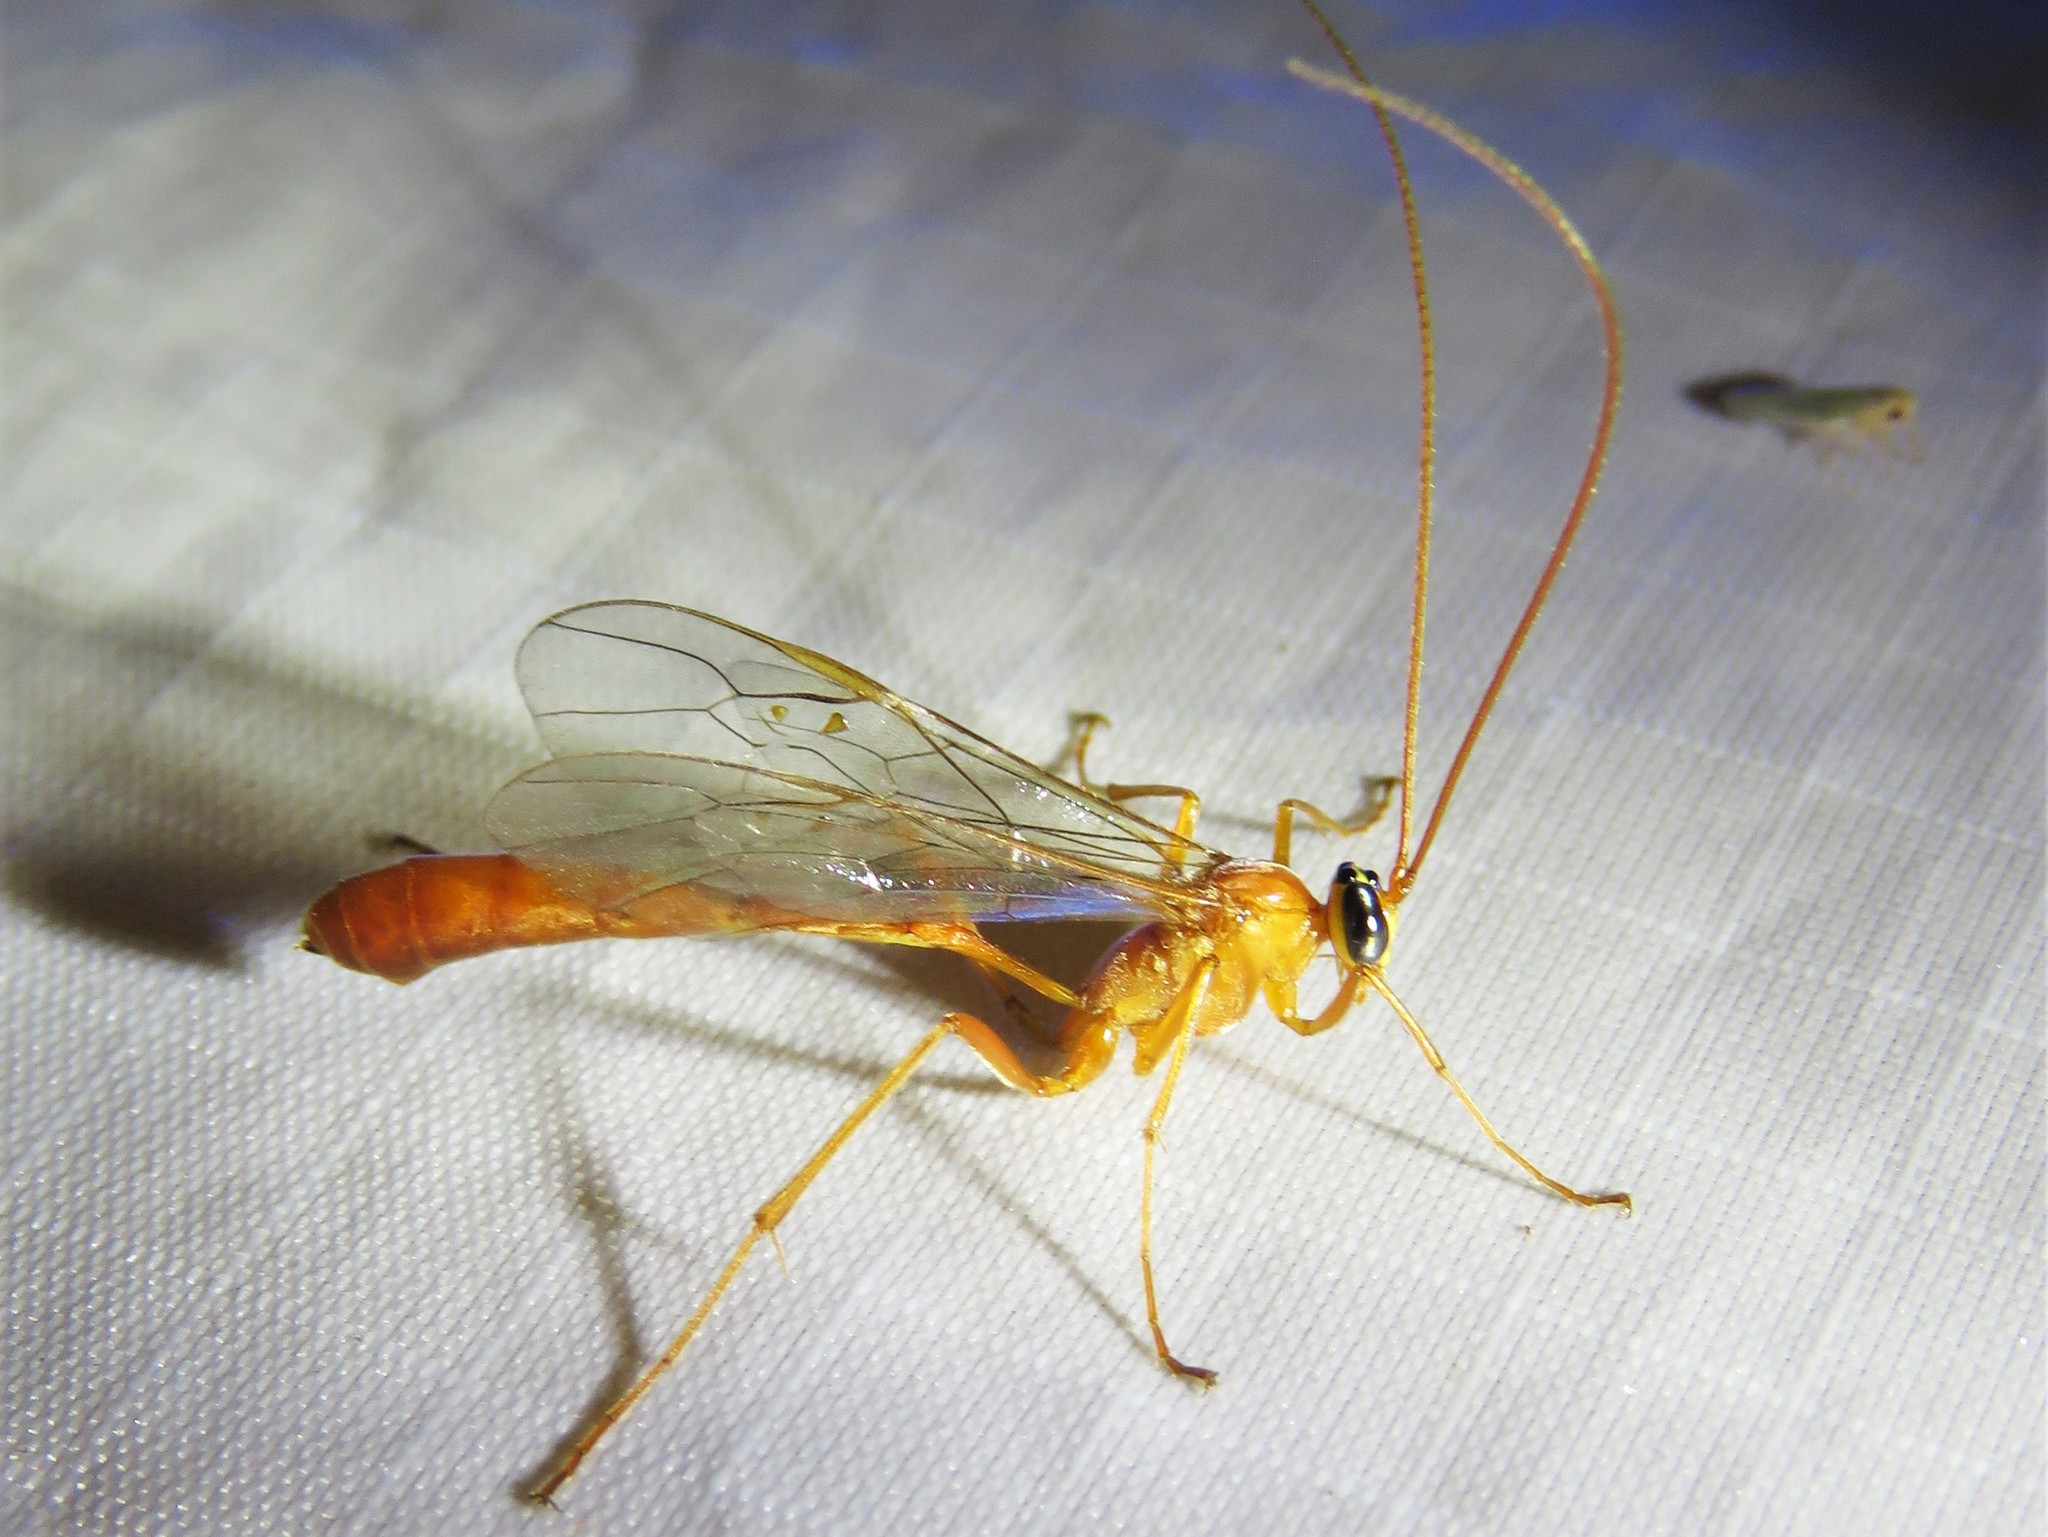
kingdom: Animalia
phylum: Arthropoda
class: Insecta
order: Hymenoptera
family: Ichneumonidae
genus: Enicospilus
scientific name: Enicospilus purgatus
